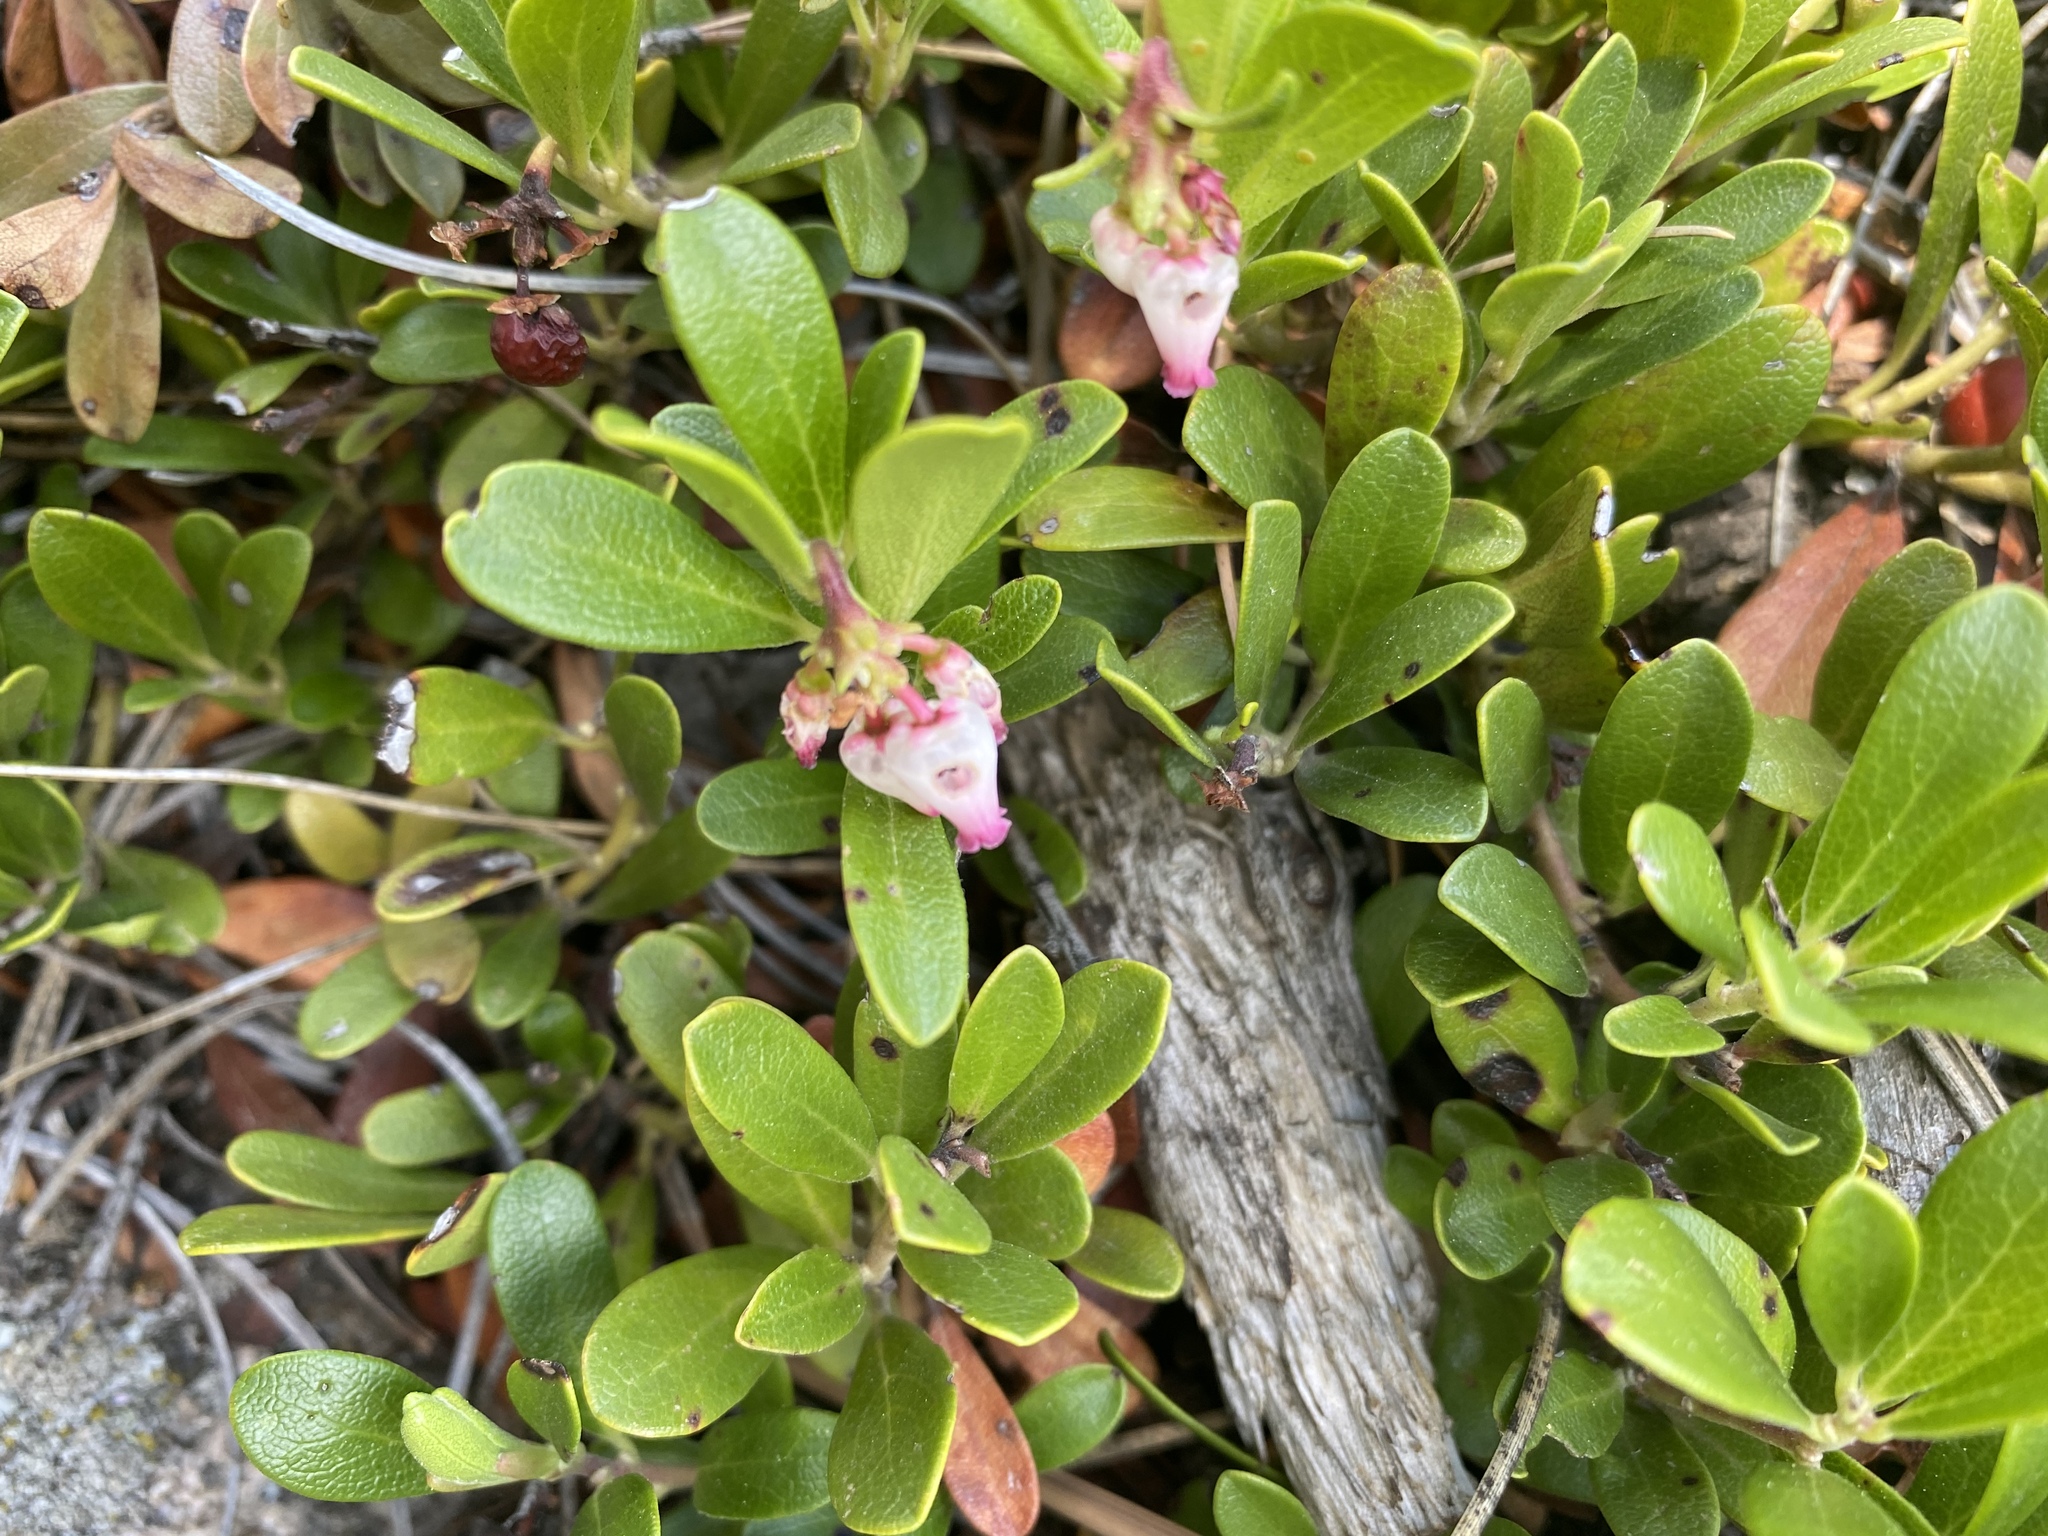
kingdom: Plantae
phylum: Tracheophyta
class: Magnoliopsida
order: Ericales
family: Ericaceae
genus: Arctostaphylos
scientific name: Arctostaphylos uva-ursi
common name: Bearberry
